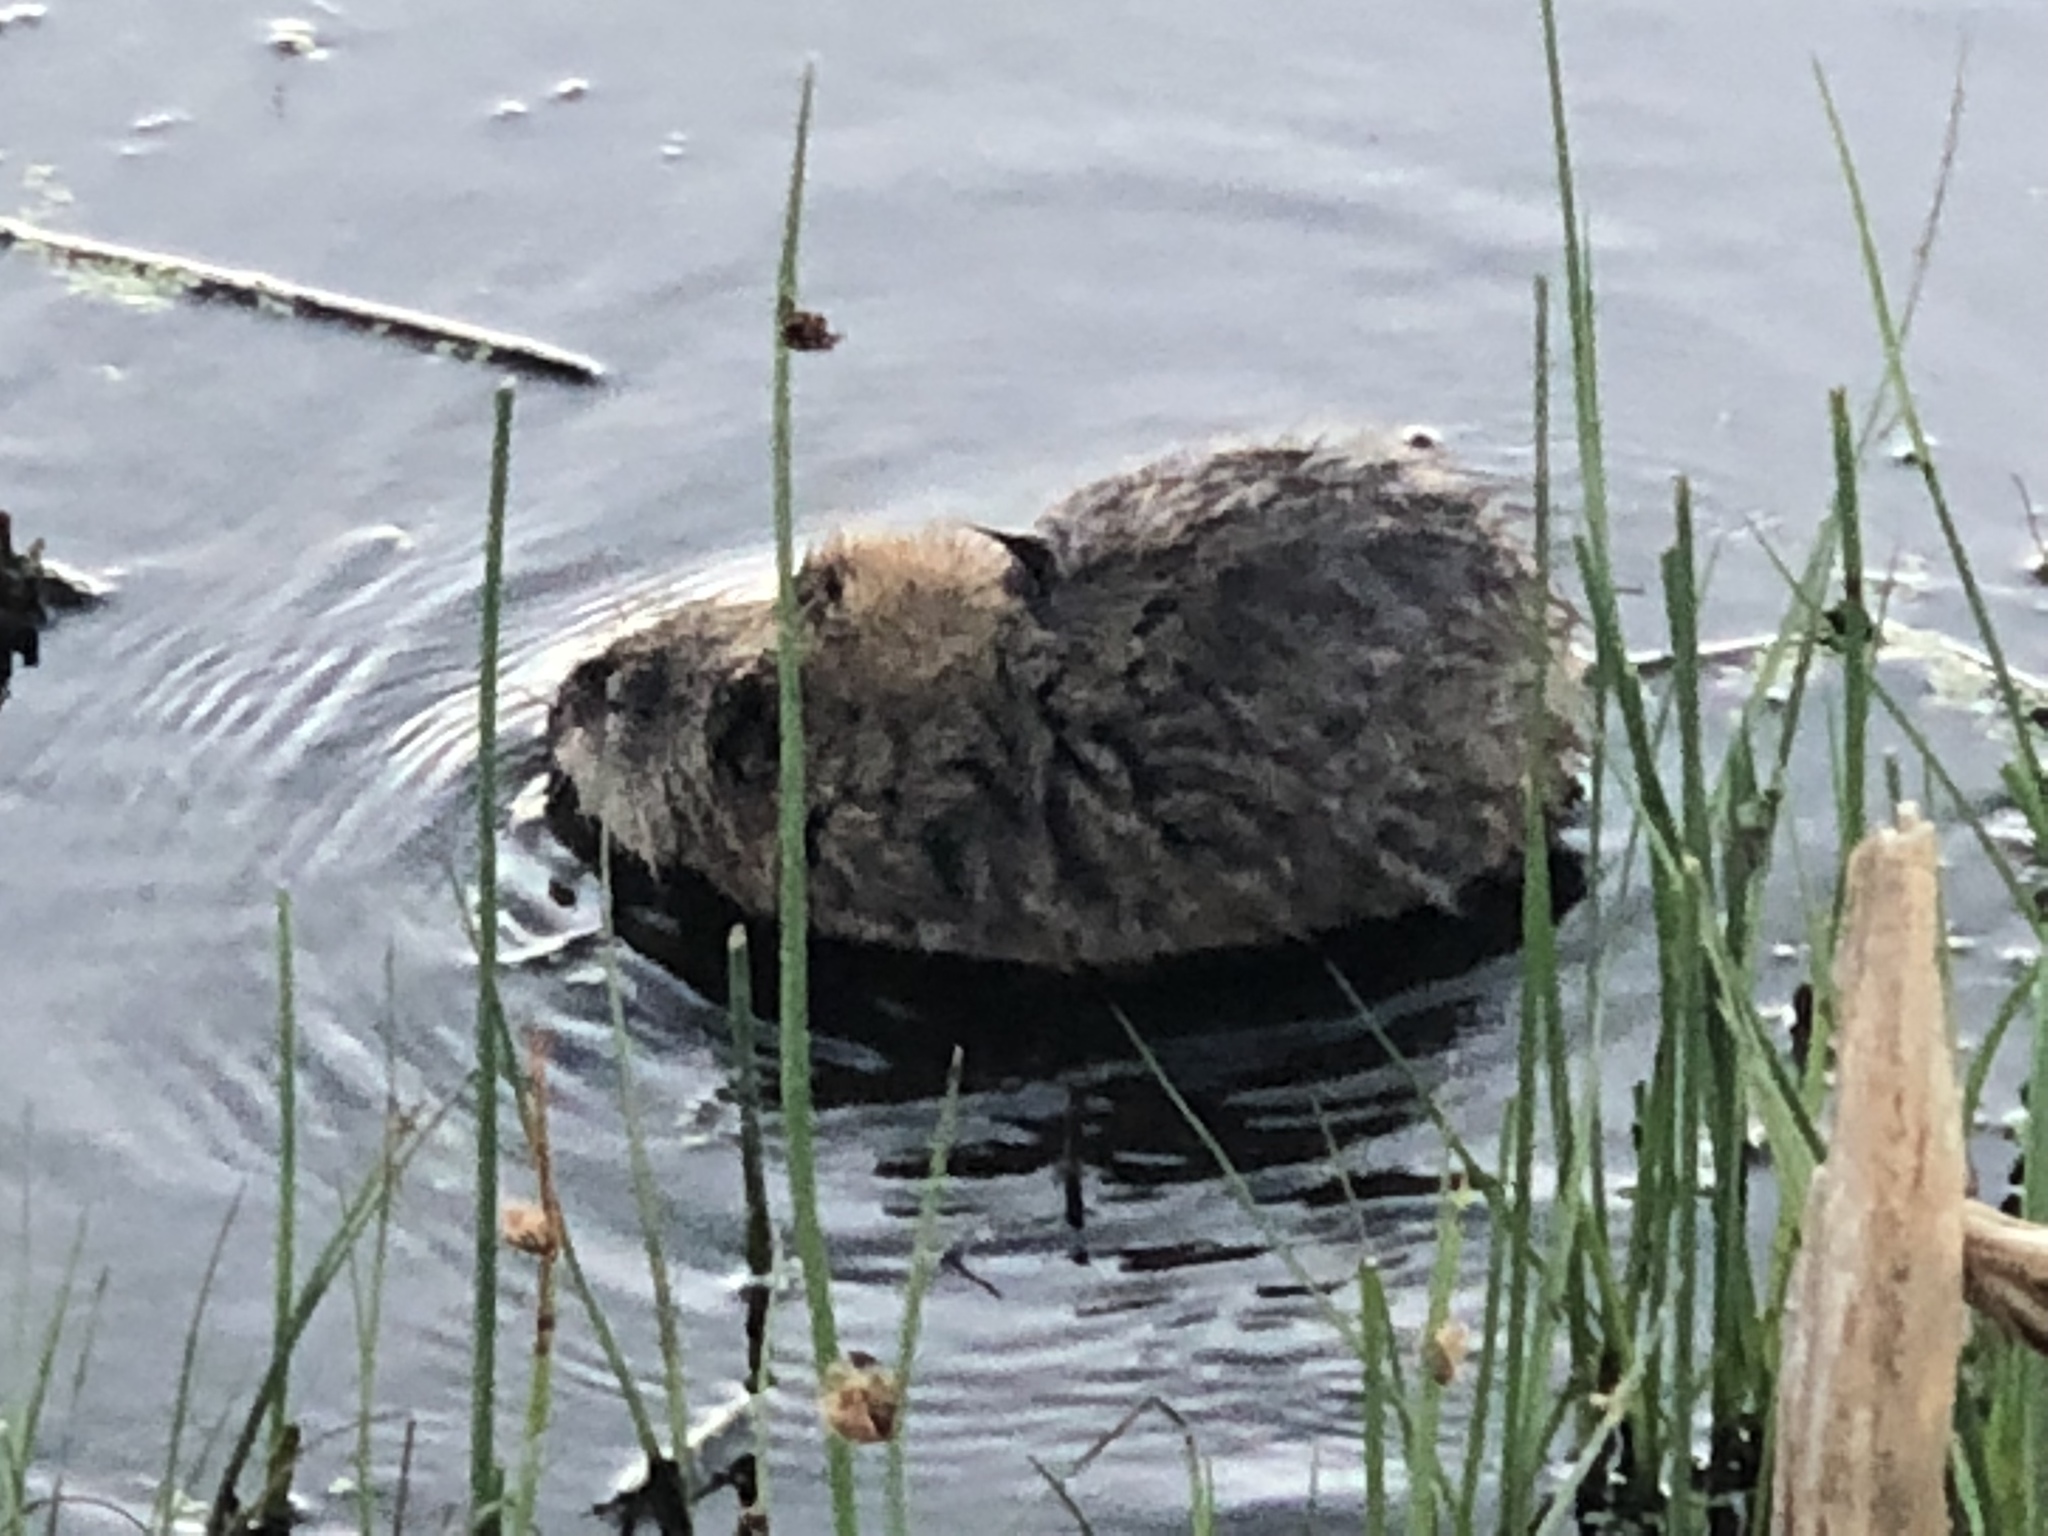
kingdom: Animalia
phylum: Chordata
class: Mammalia
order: Rodentia
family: Cricetidae
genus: Ondatra
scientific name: Ondatra zibethicus
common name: Muskrat
